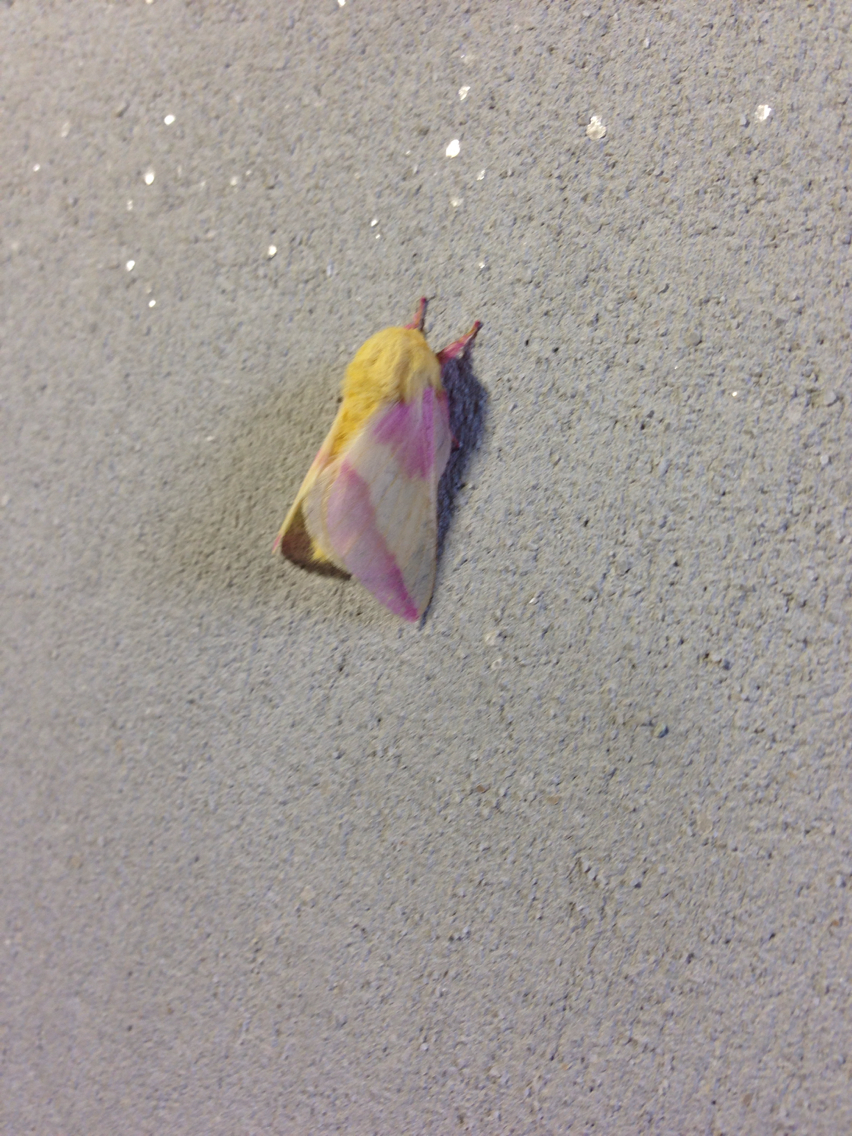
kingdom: Animalia
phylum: Arthropoda
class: Insecta
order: Lepidoptera
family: Saturniidae
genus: Dryocampa
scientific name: Dryocampa rubicunda
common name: Rosy maple moth
